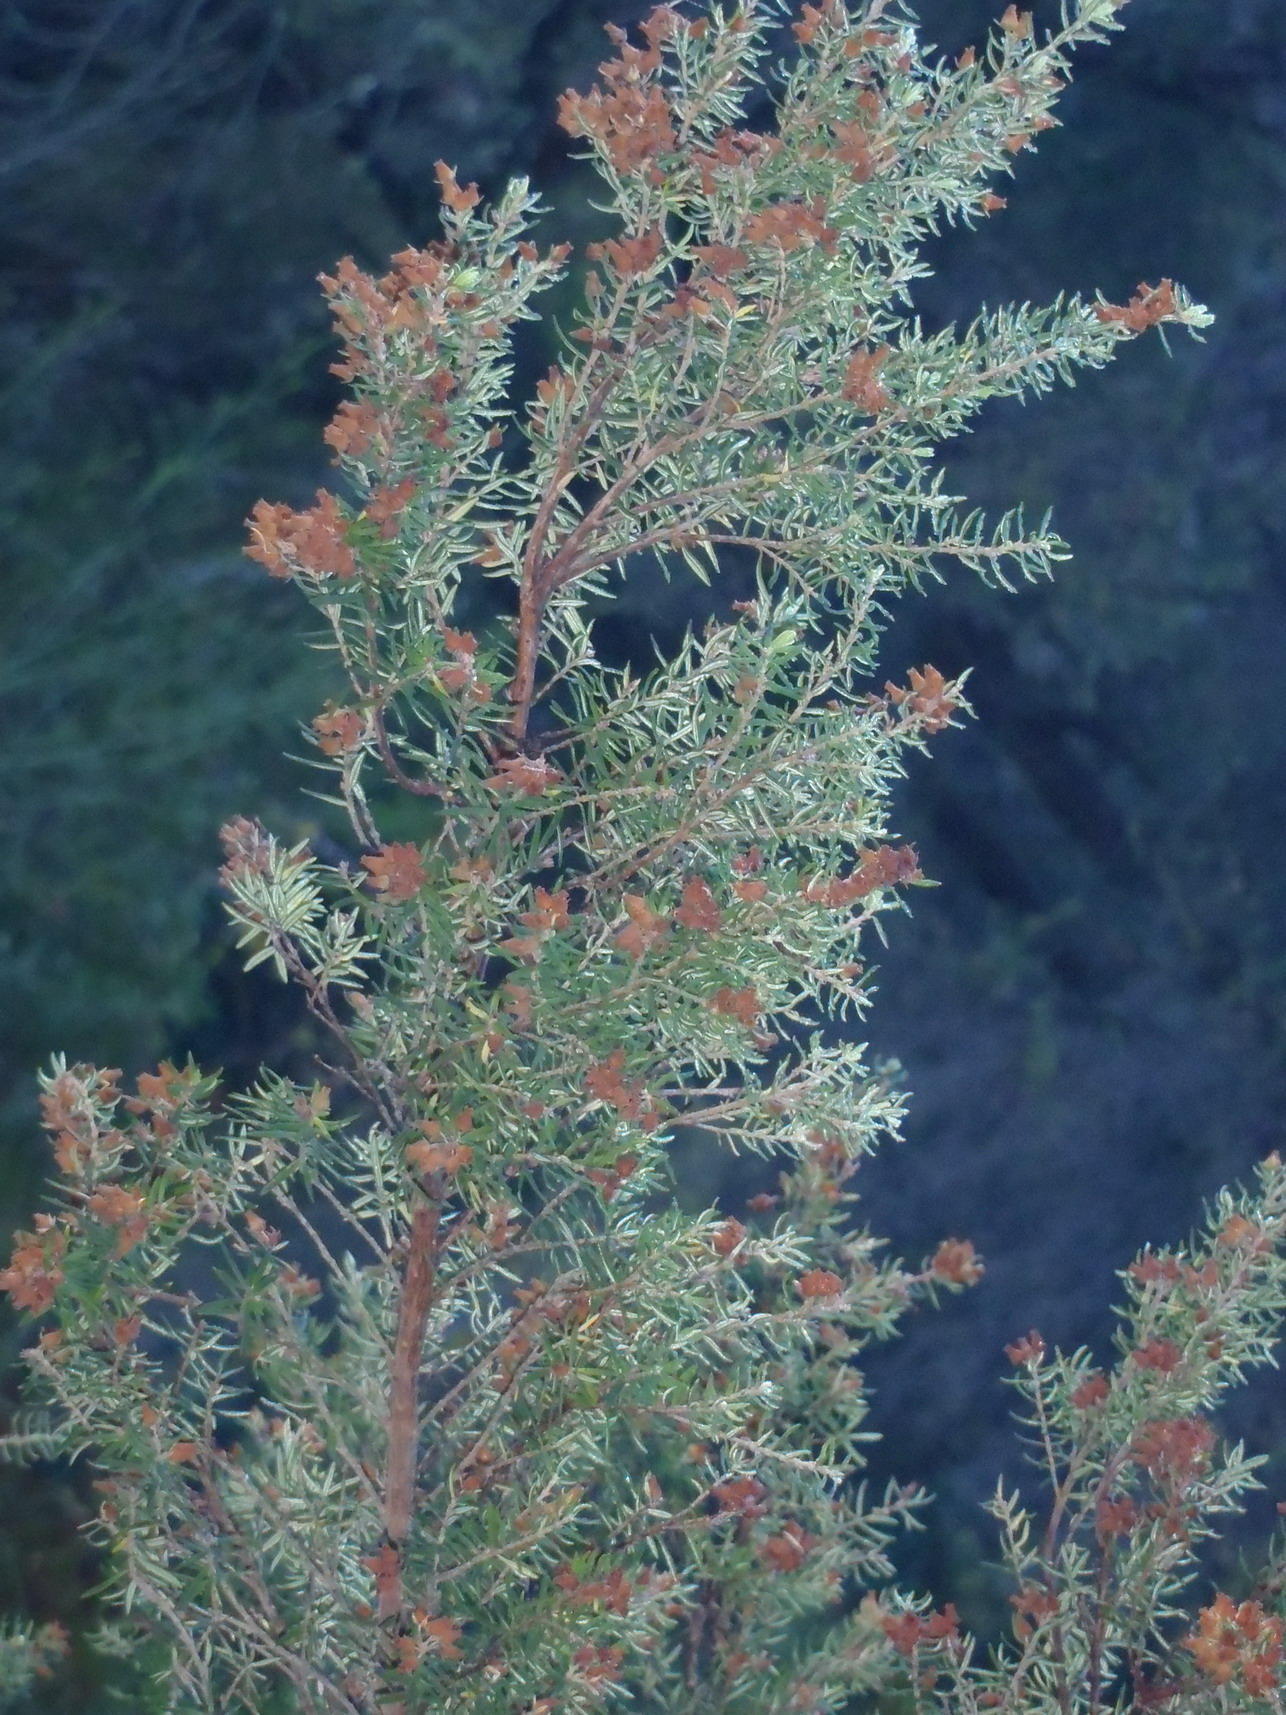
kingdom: Plantae
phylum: Tracheophyta
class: Magnoliopsida
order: Ericales
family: Ericaceae
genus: Erica
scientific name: Erica caffra
